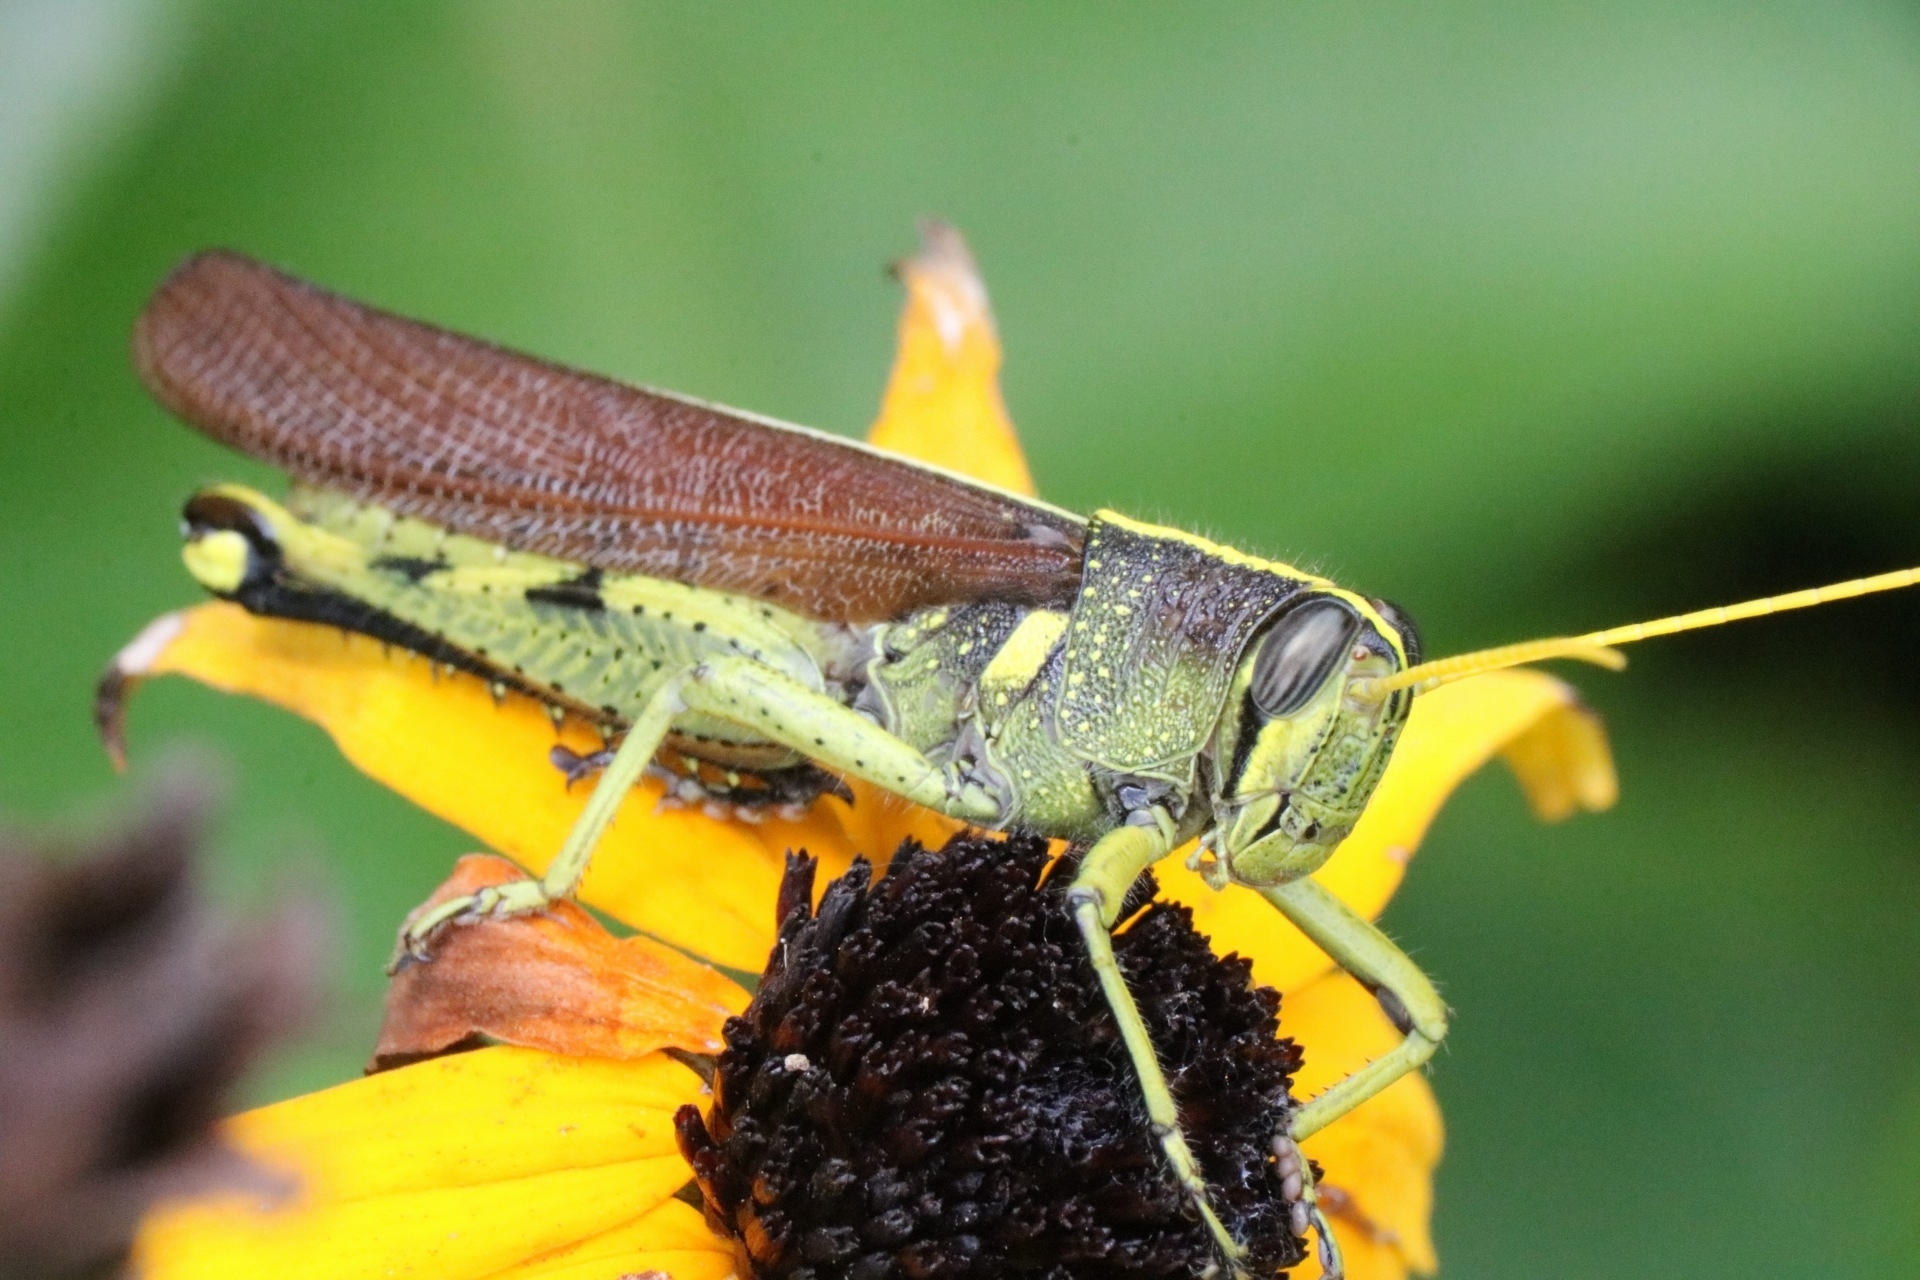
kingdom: Animalia
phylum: Arthropoda
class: Insecta
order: Orthoptera
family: Acrididae
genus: Schistocerca
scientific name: Schistocerca obscura
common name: Obscure bird grasshopper
